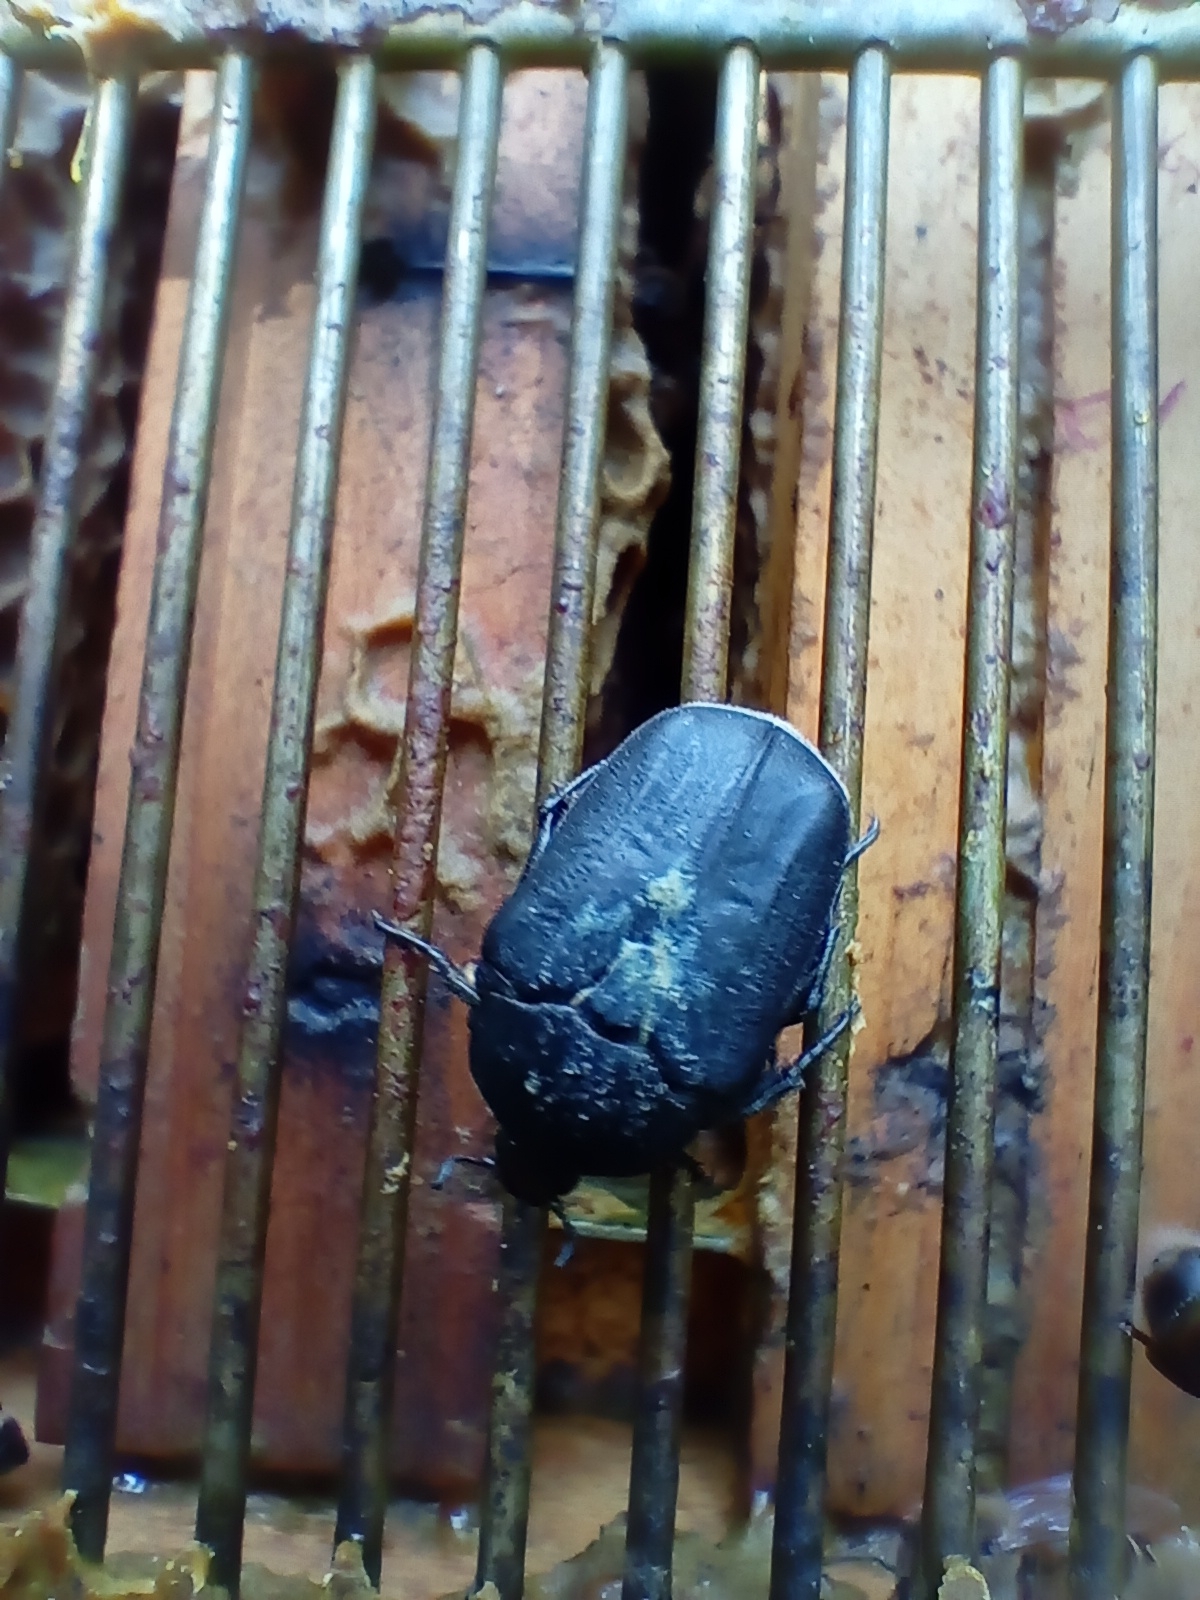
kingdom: Animalia
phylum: Arthropoda
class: Insecta
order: Coleoptera
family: Scarabaeidae
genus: Protaetia
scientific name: Protaetia opaca
